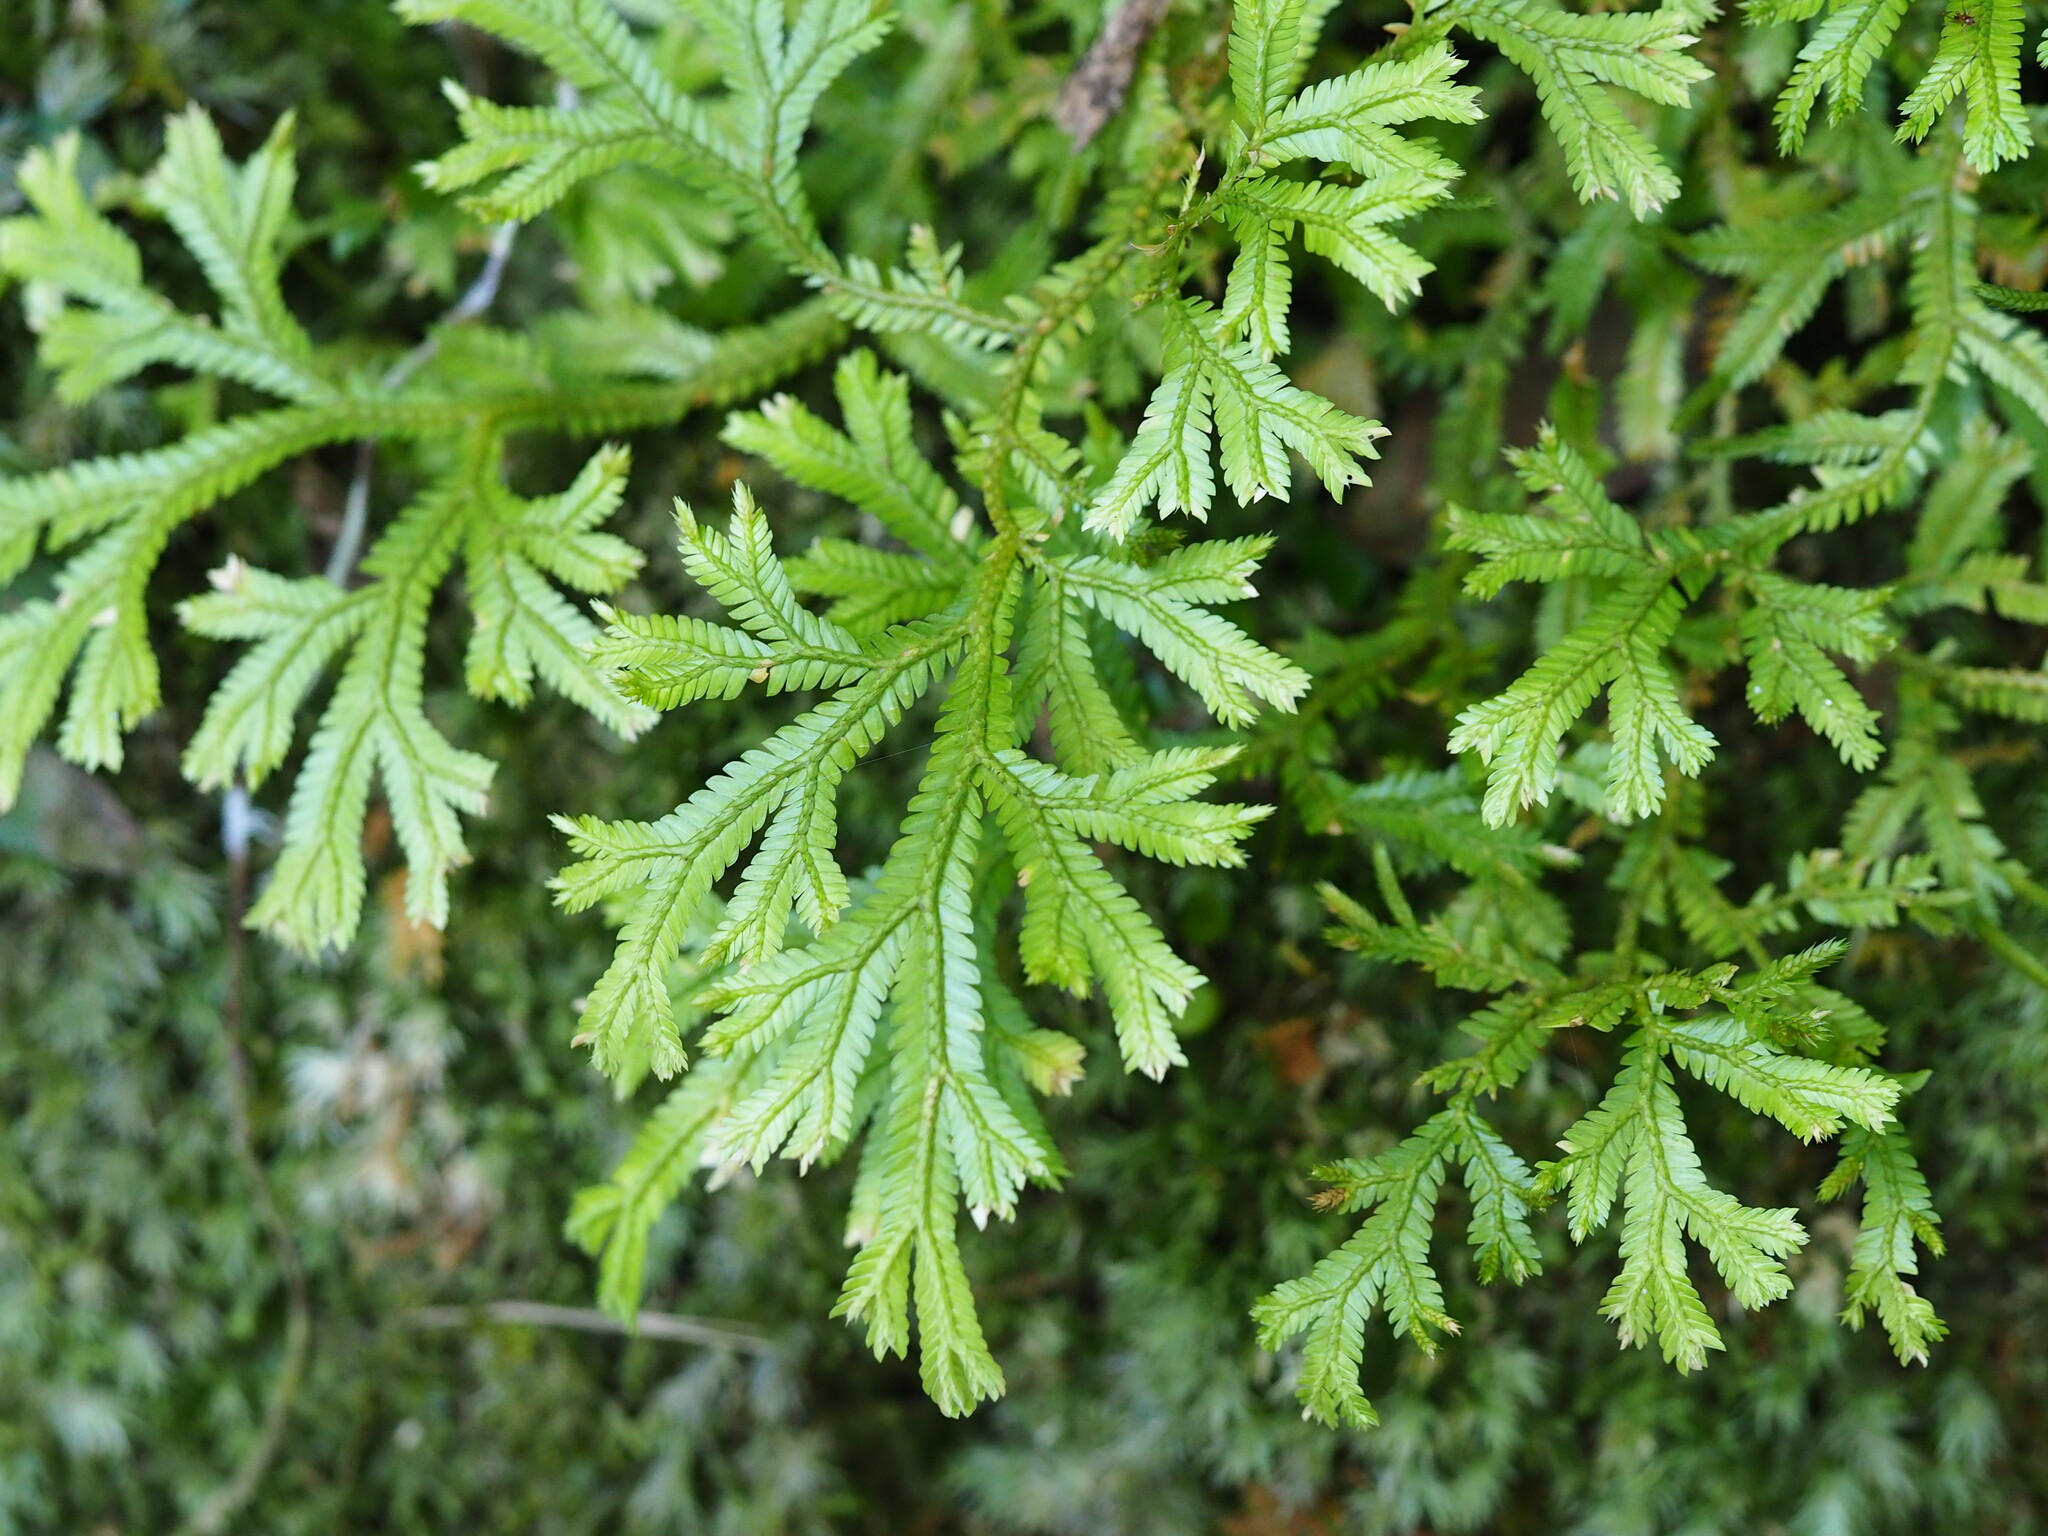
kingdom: Plantae
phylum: Tracheophyta
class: Lycopodiopsida
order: Selaginellales
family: Selaginellaceae
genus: Selaginella
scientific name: Selaginella doederleinii
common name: Greater selaginella
